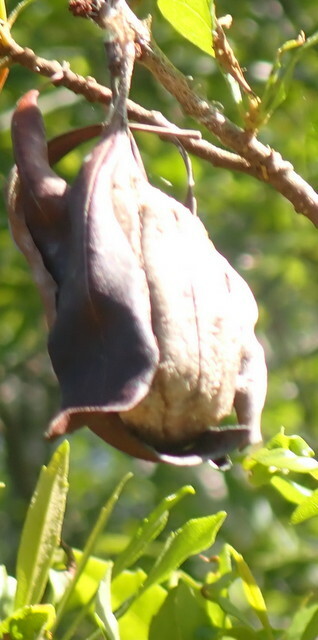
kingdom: Animalia
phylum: Arthropoda
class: Insecta
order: Lepidoptera
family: Saturniidae
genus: Antheraea
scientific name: Antheraea polyphemus
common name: Polyphemus moth
